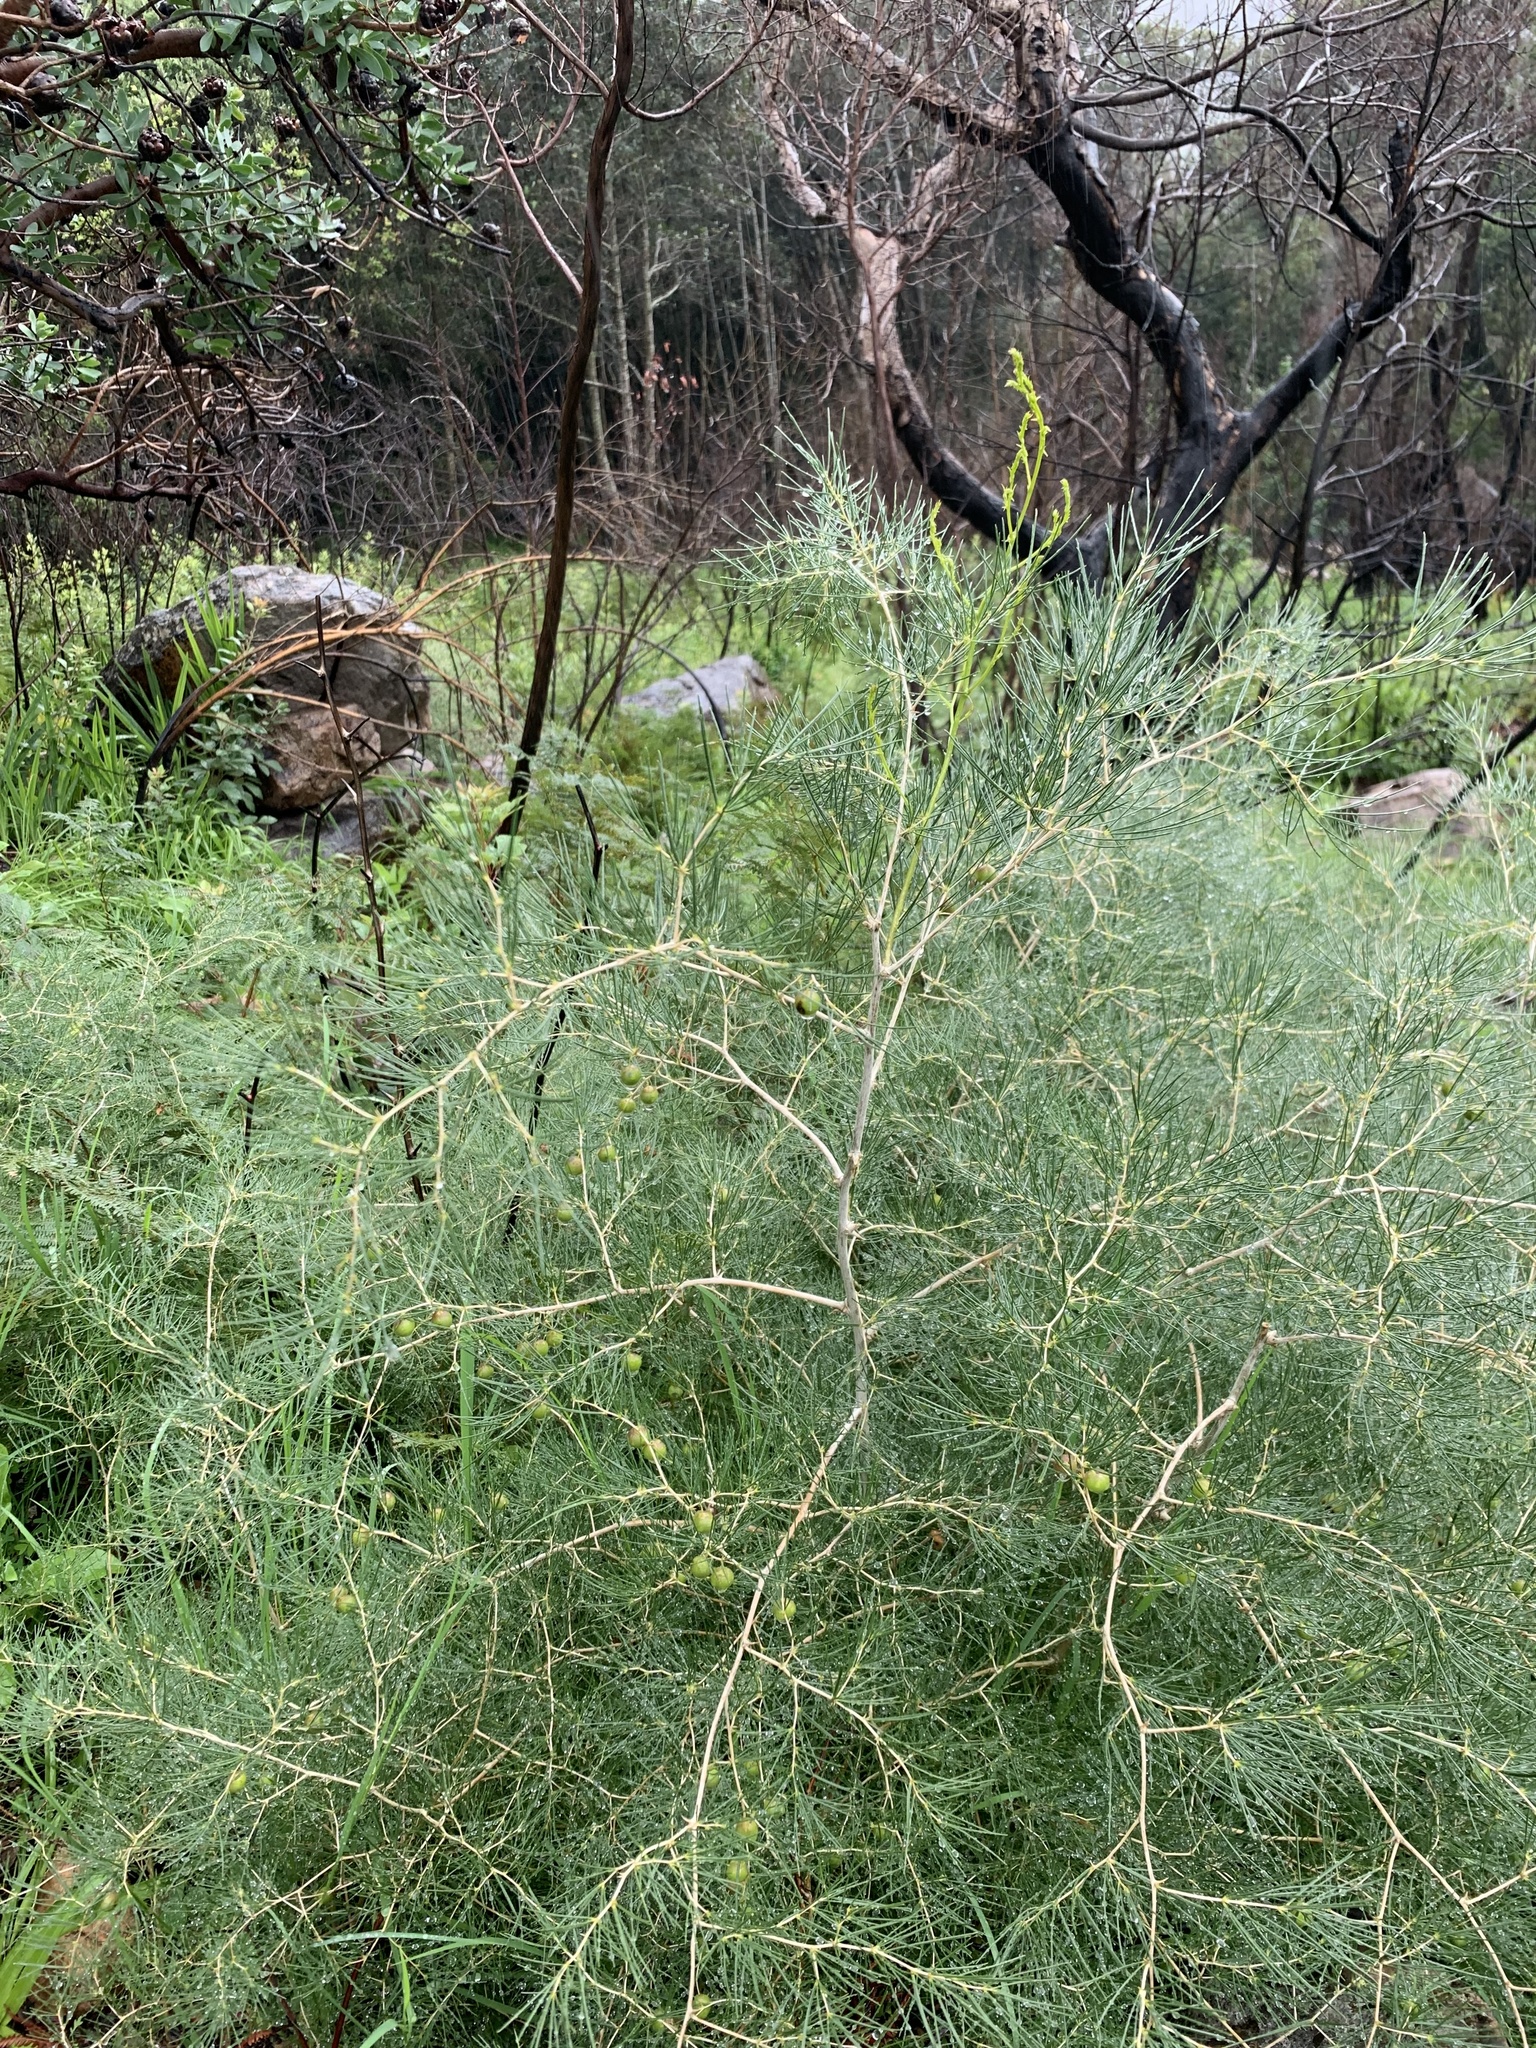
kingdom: Plantae
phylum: Tracheophyta
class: Liliopsida
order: Asparagales
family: Asparagaceae
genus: Asparagus
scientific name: Asparagus lignosus
